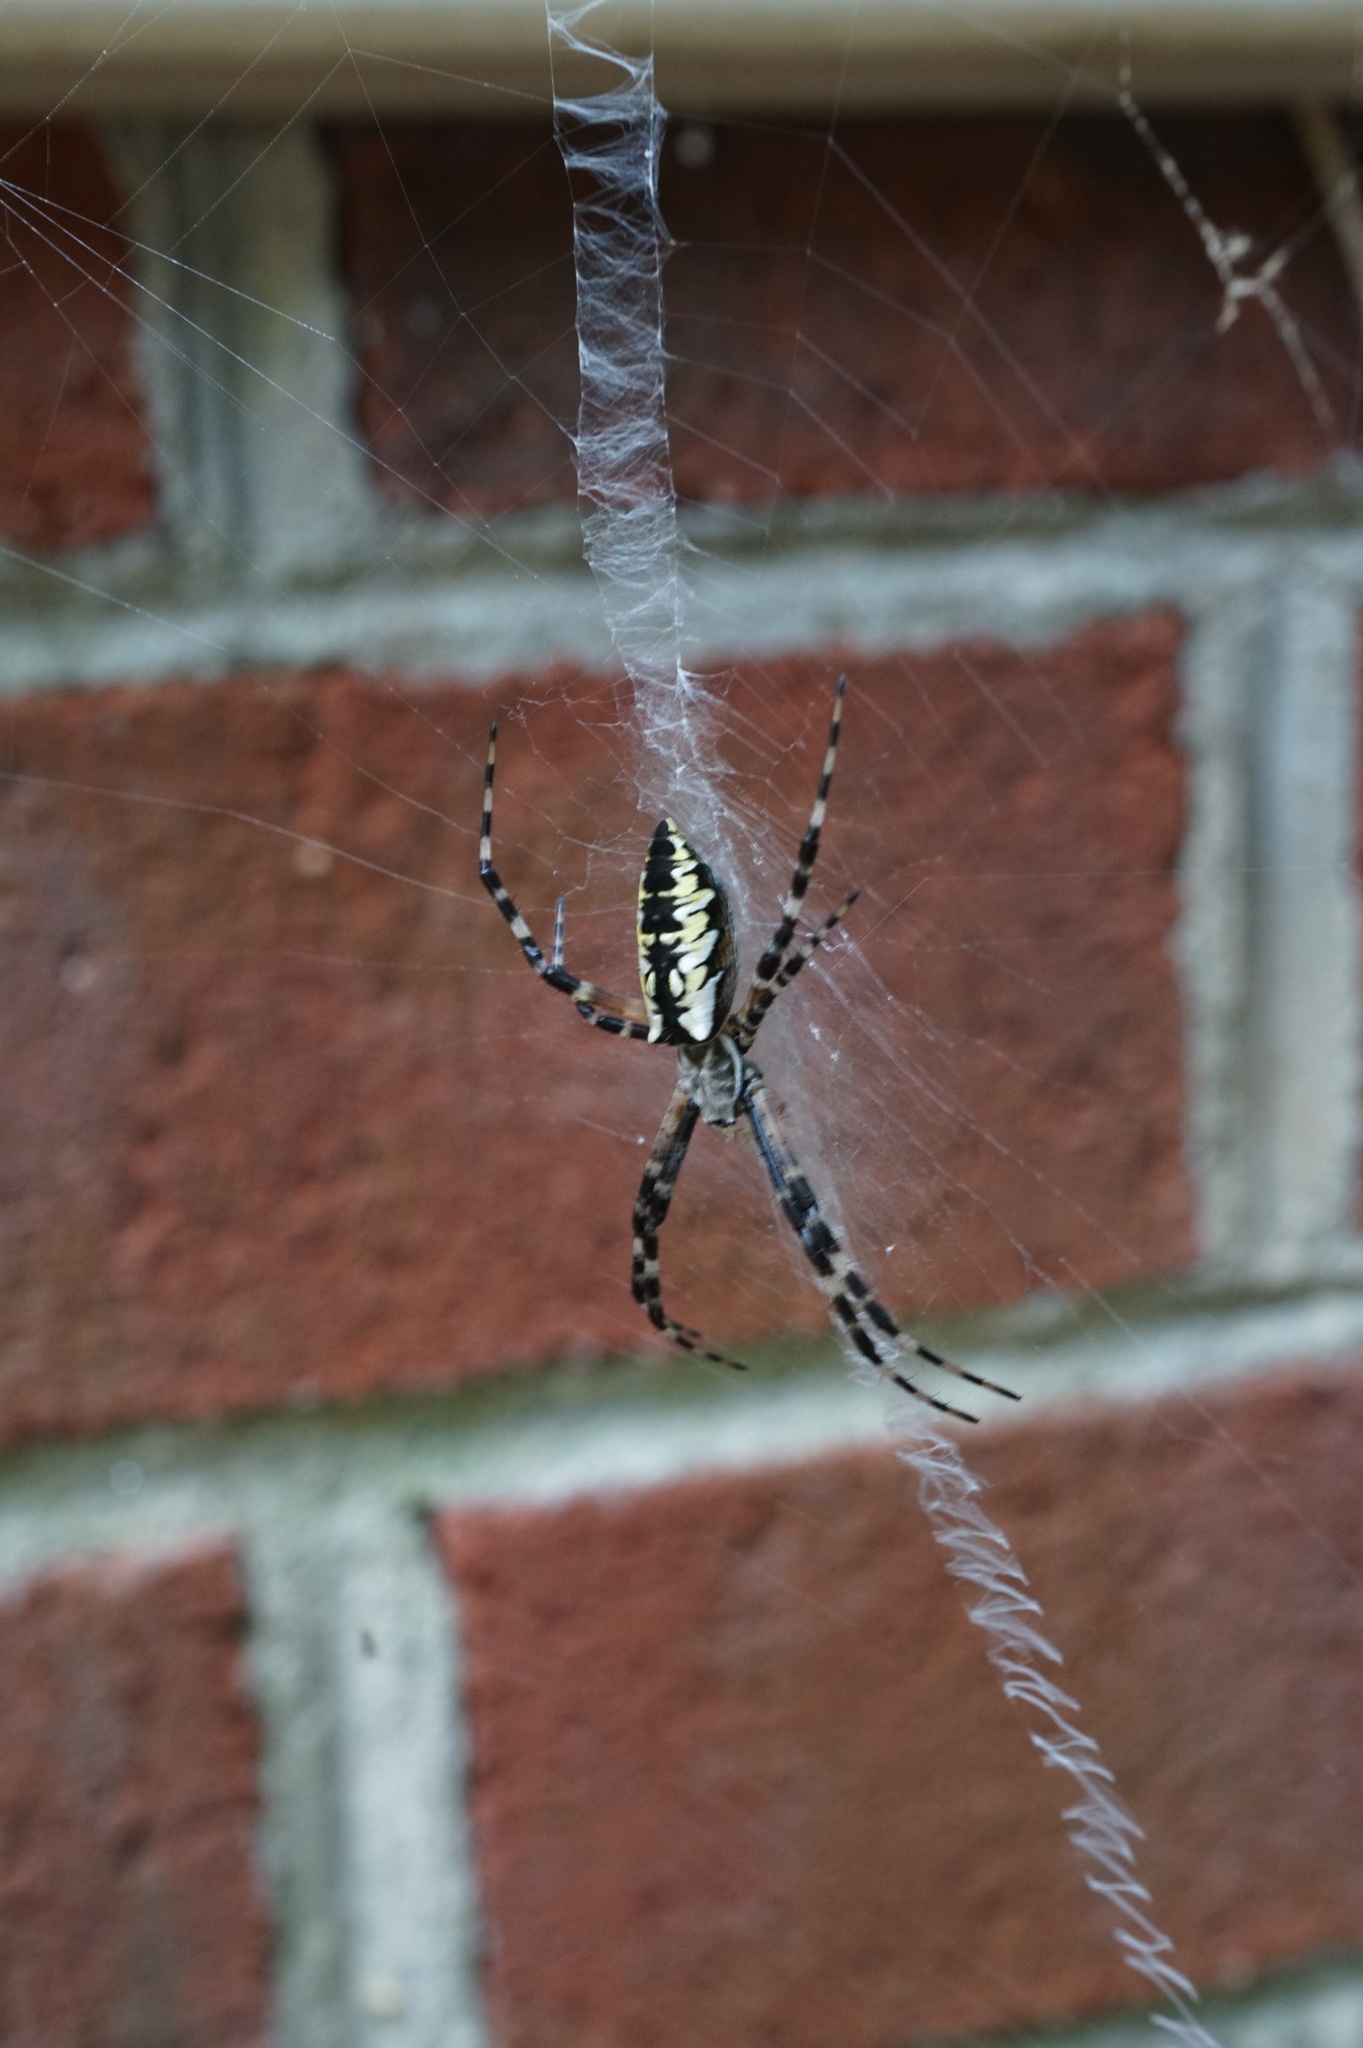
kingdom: Animalia
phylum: Arthropoda
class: Arachnida
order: Araneae
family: Araneidae
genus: Argiope
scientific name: Argiope aurantia
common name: Orb weavers
